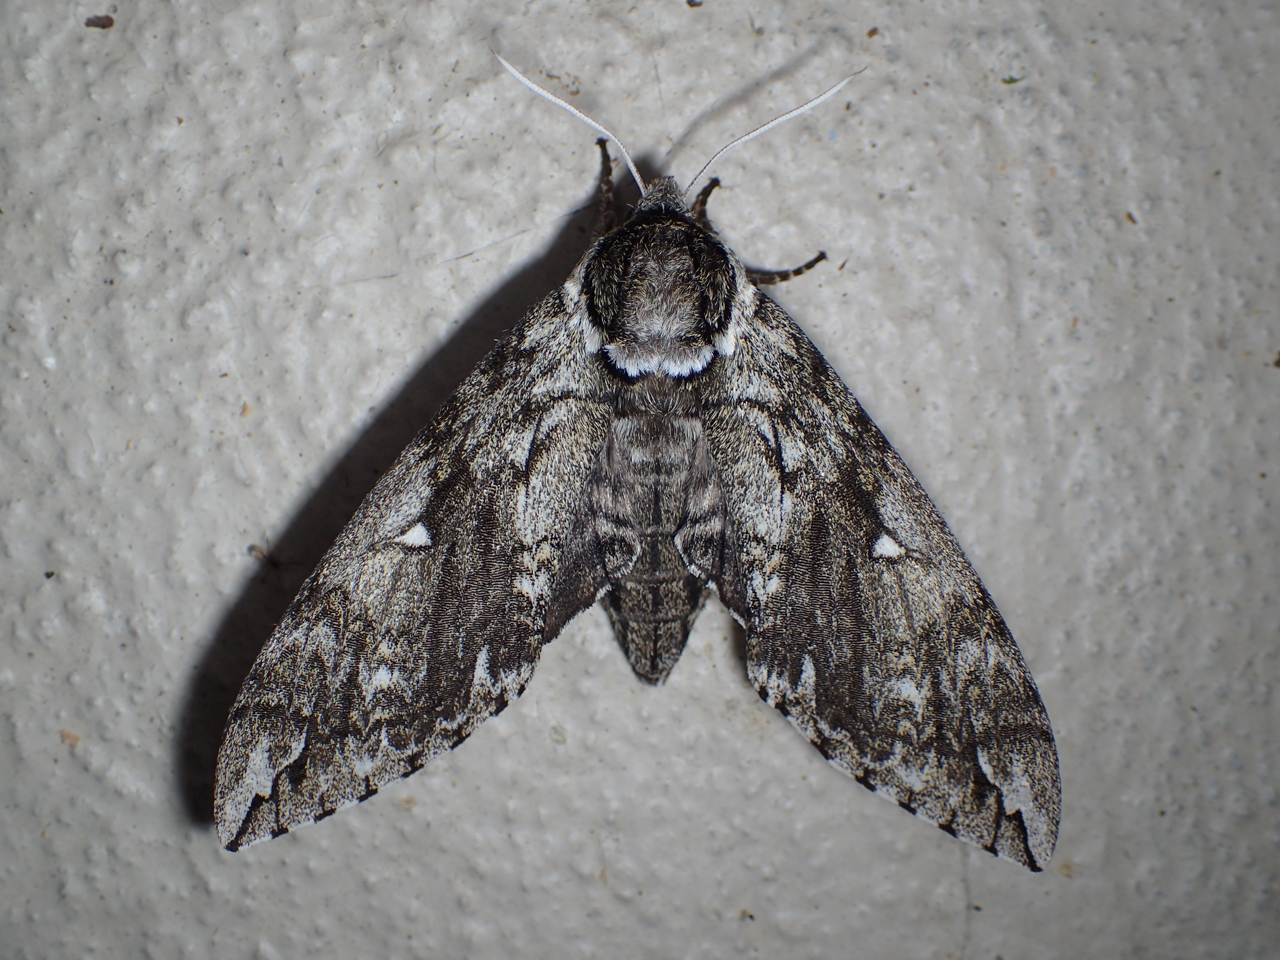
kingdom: Animalia
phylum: Arthropoda
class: Insecta
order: Lepidoptera
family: Sphingidae
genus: Ceratomia
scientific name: Ceratomia undulosa
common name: Waved sphinx
